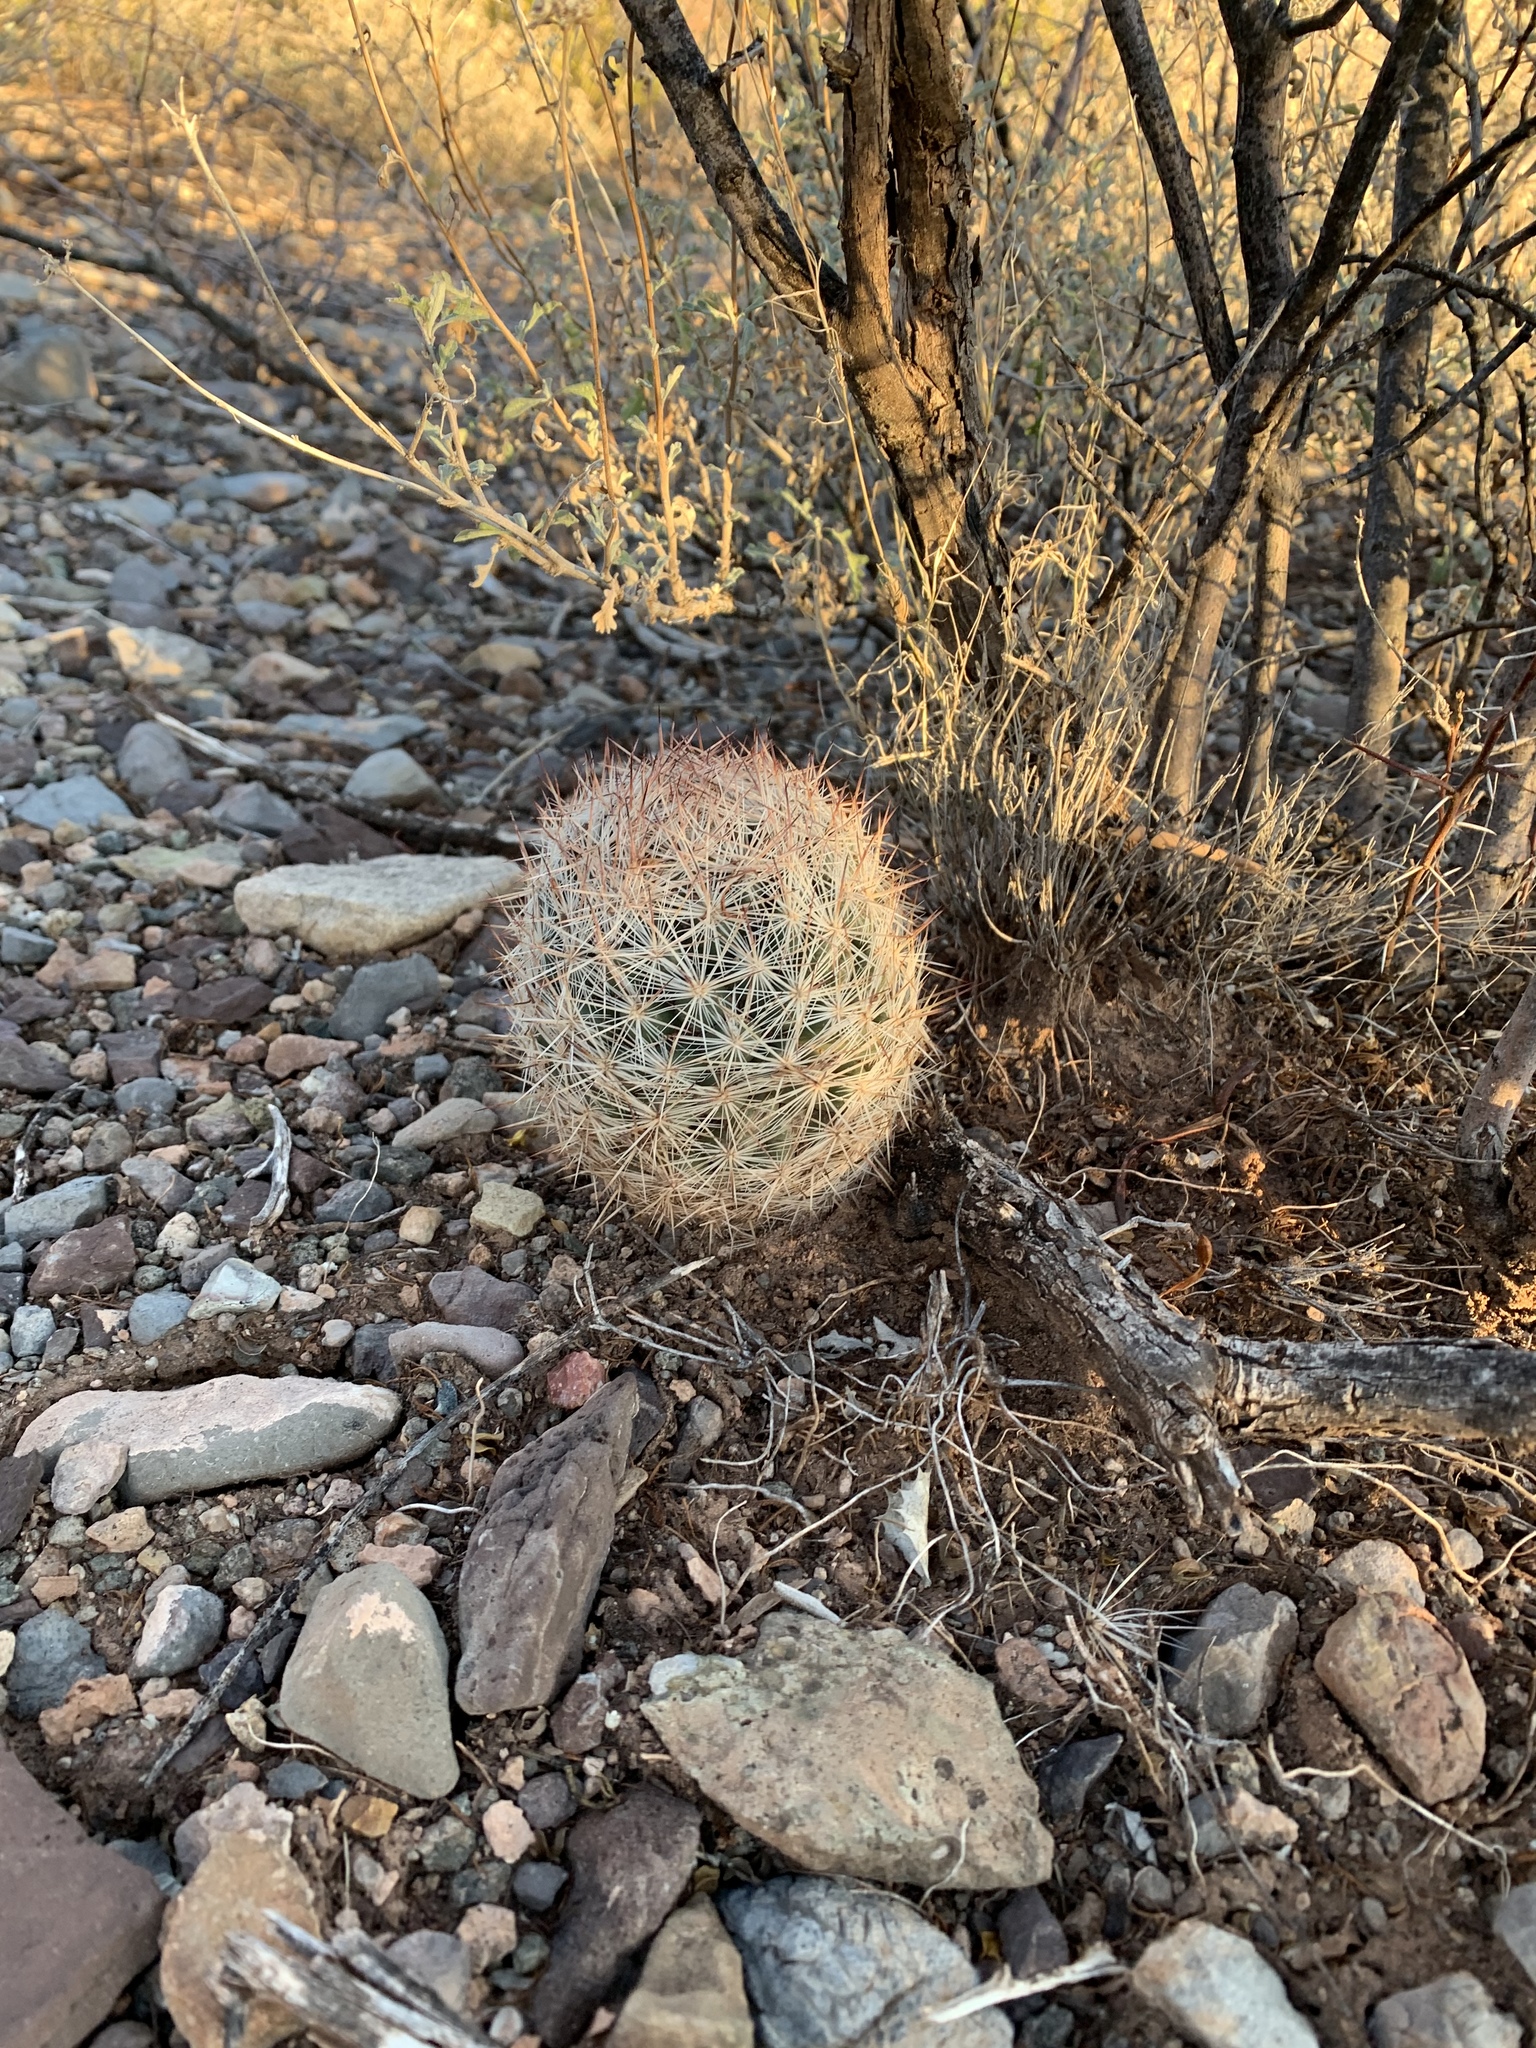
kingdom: Plantae
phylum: Tracheophyta
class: Magnoliopsida
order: Caryophyllales
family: Cactaceae
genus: Pelecyphora
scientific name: Pelecyphora vivipara
